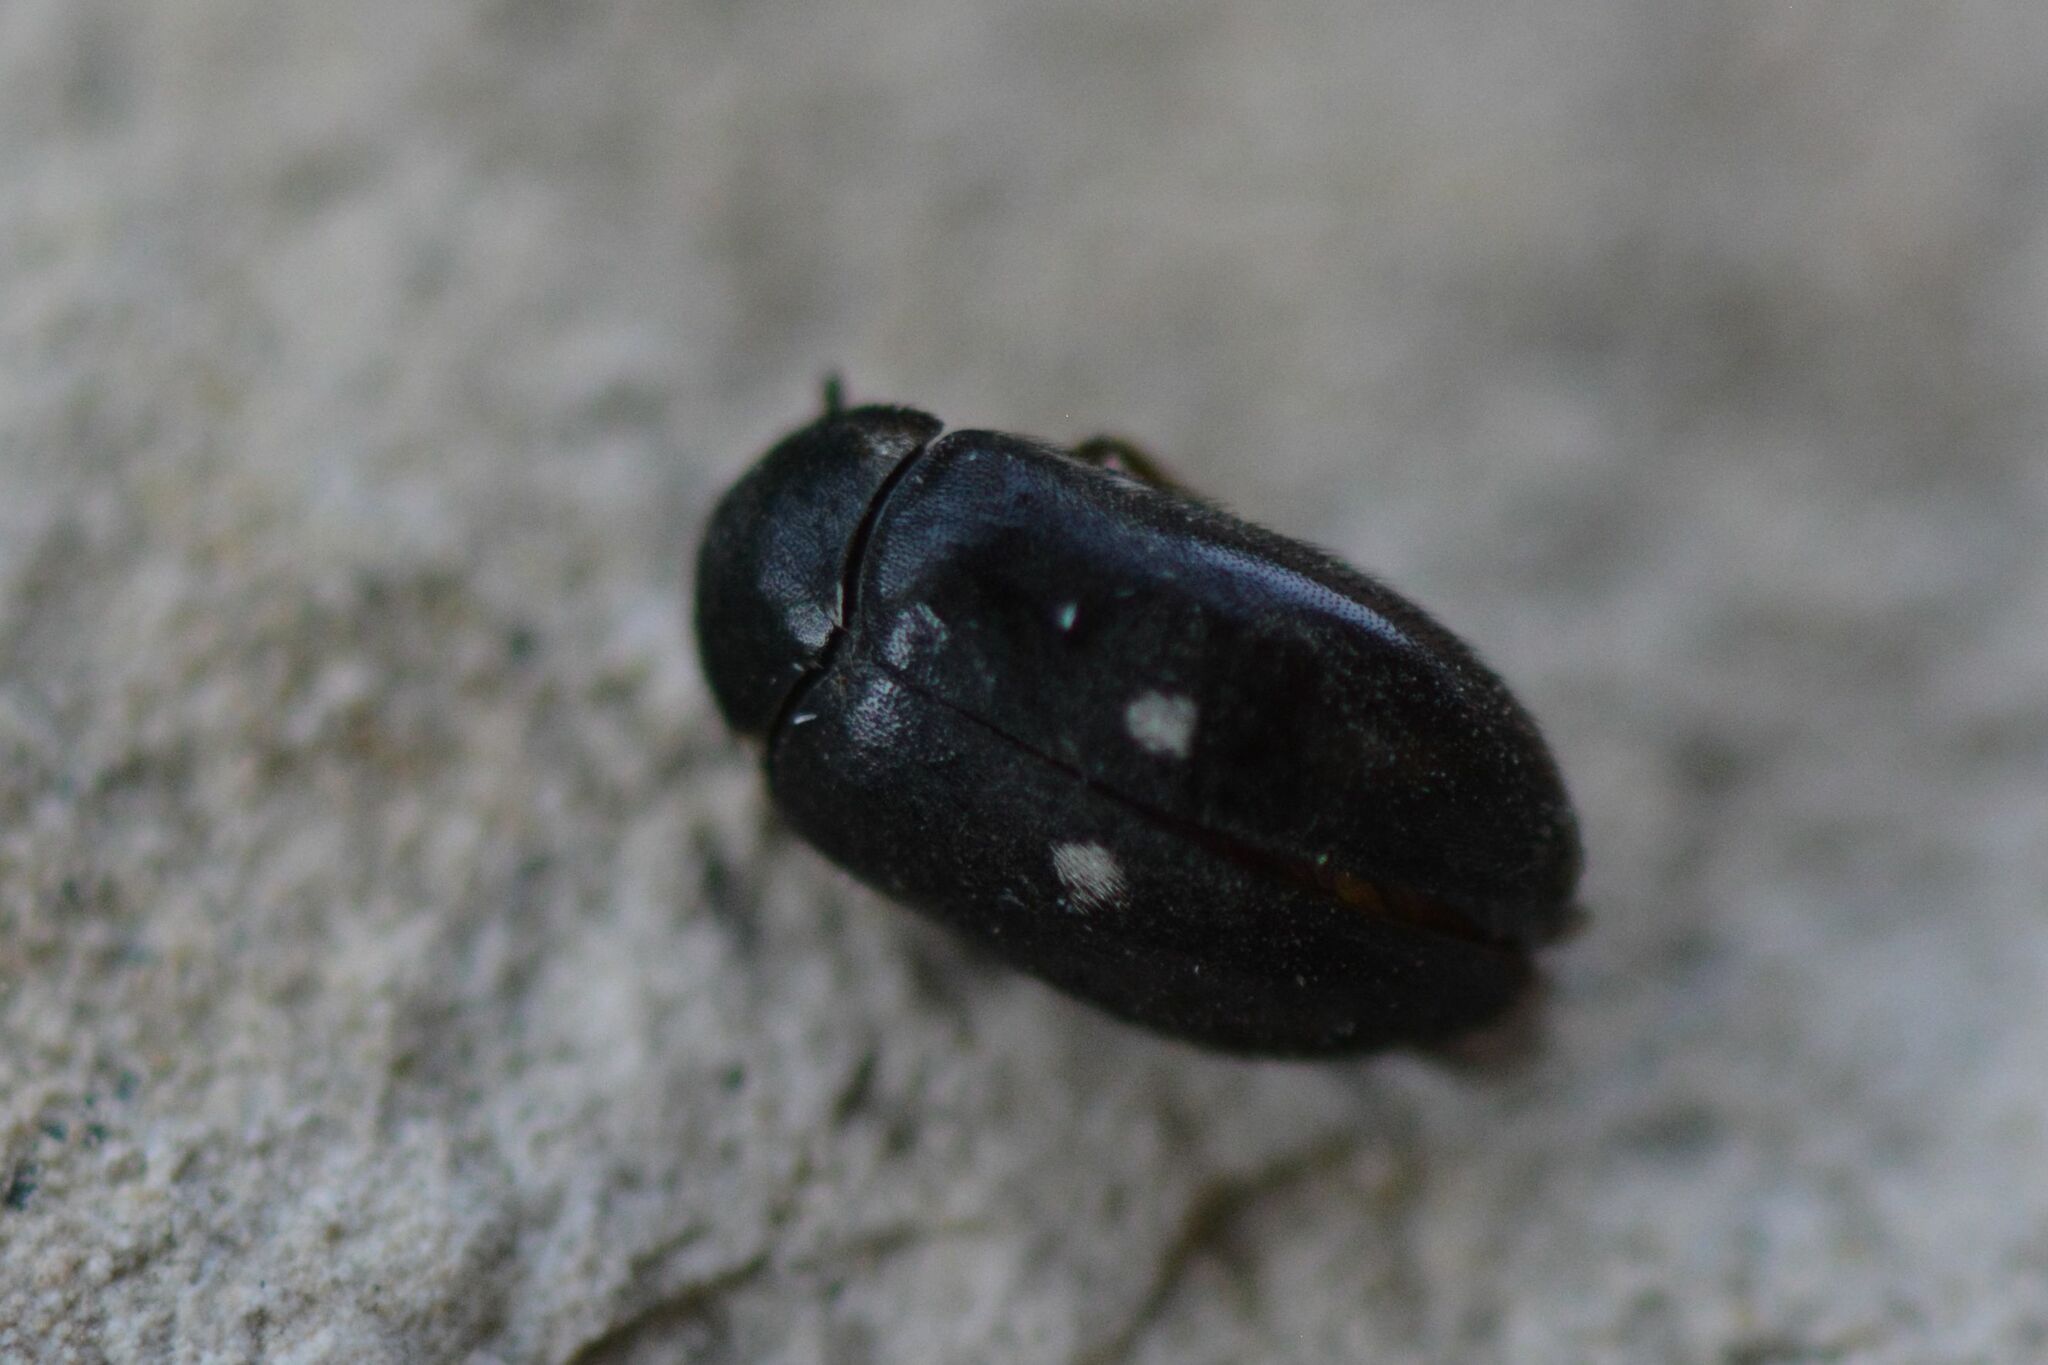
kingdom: Animalia
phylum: Arthropoda
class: Insecta
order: Coleoptera
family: Dermestidae
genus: Attagenus
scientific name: Attagenus pellio
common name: Two-spotted carpet beetle
